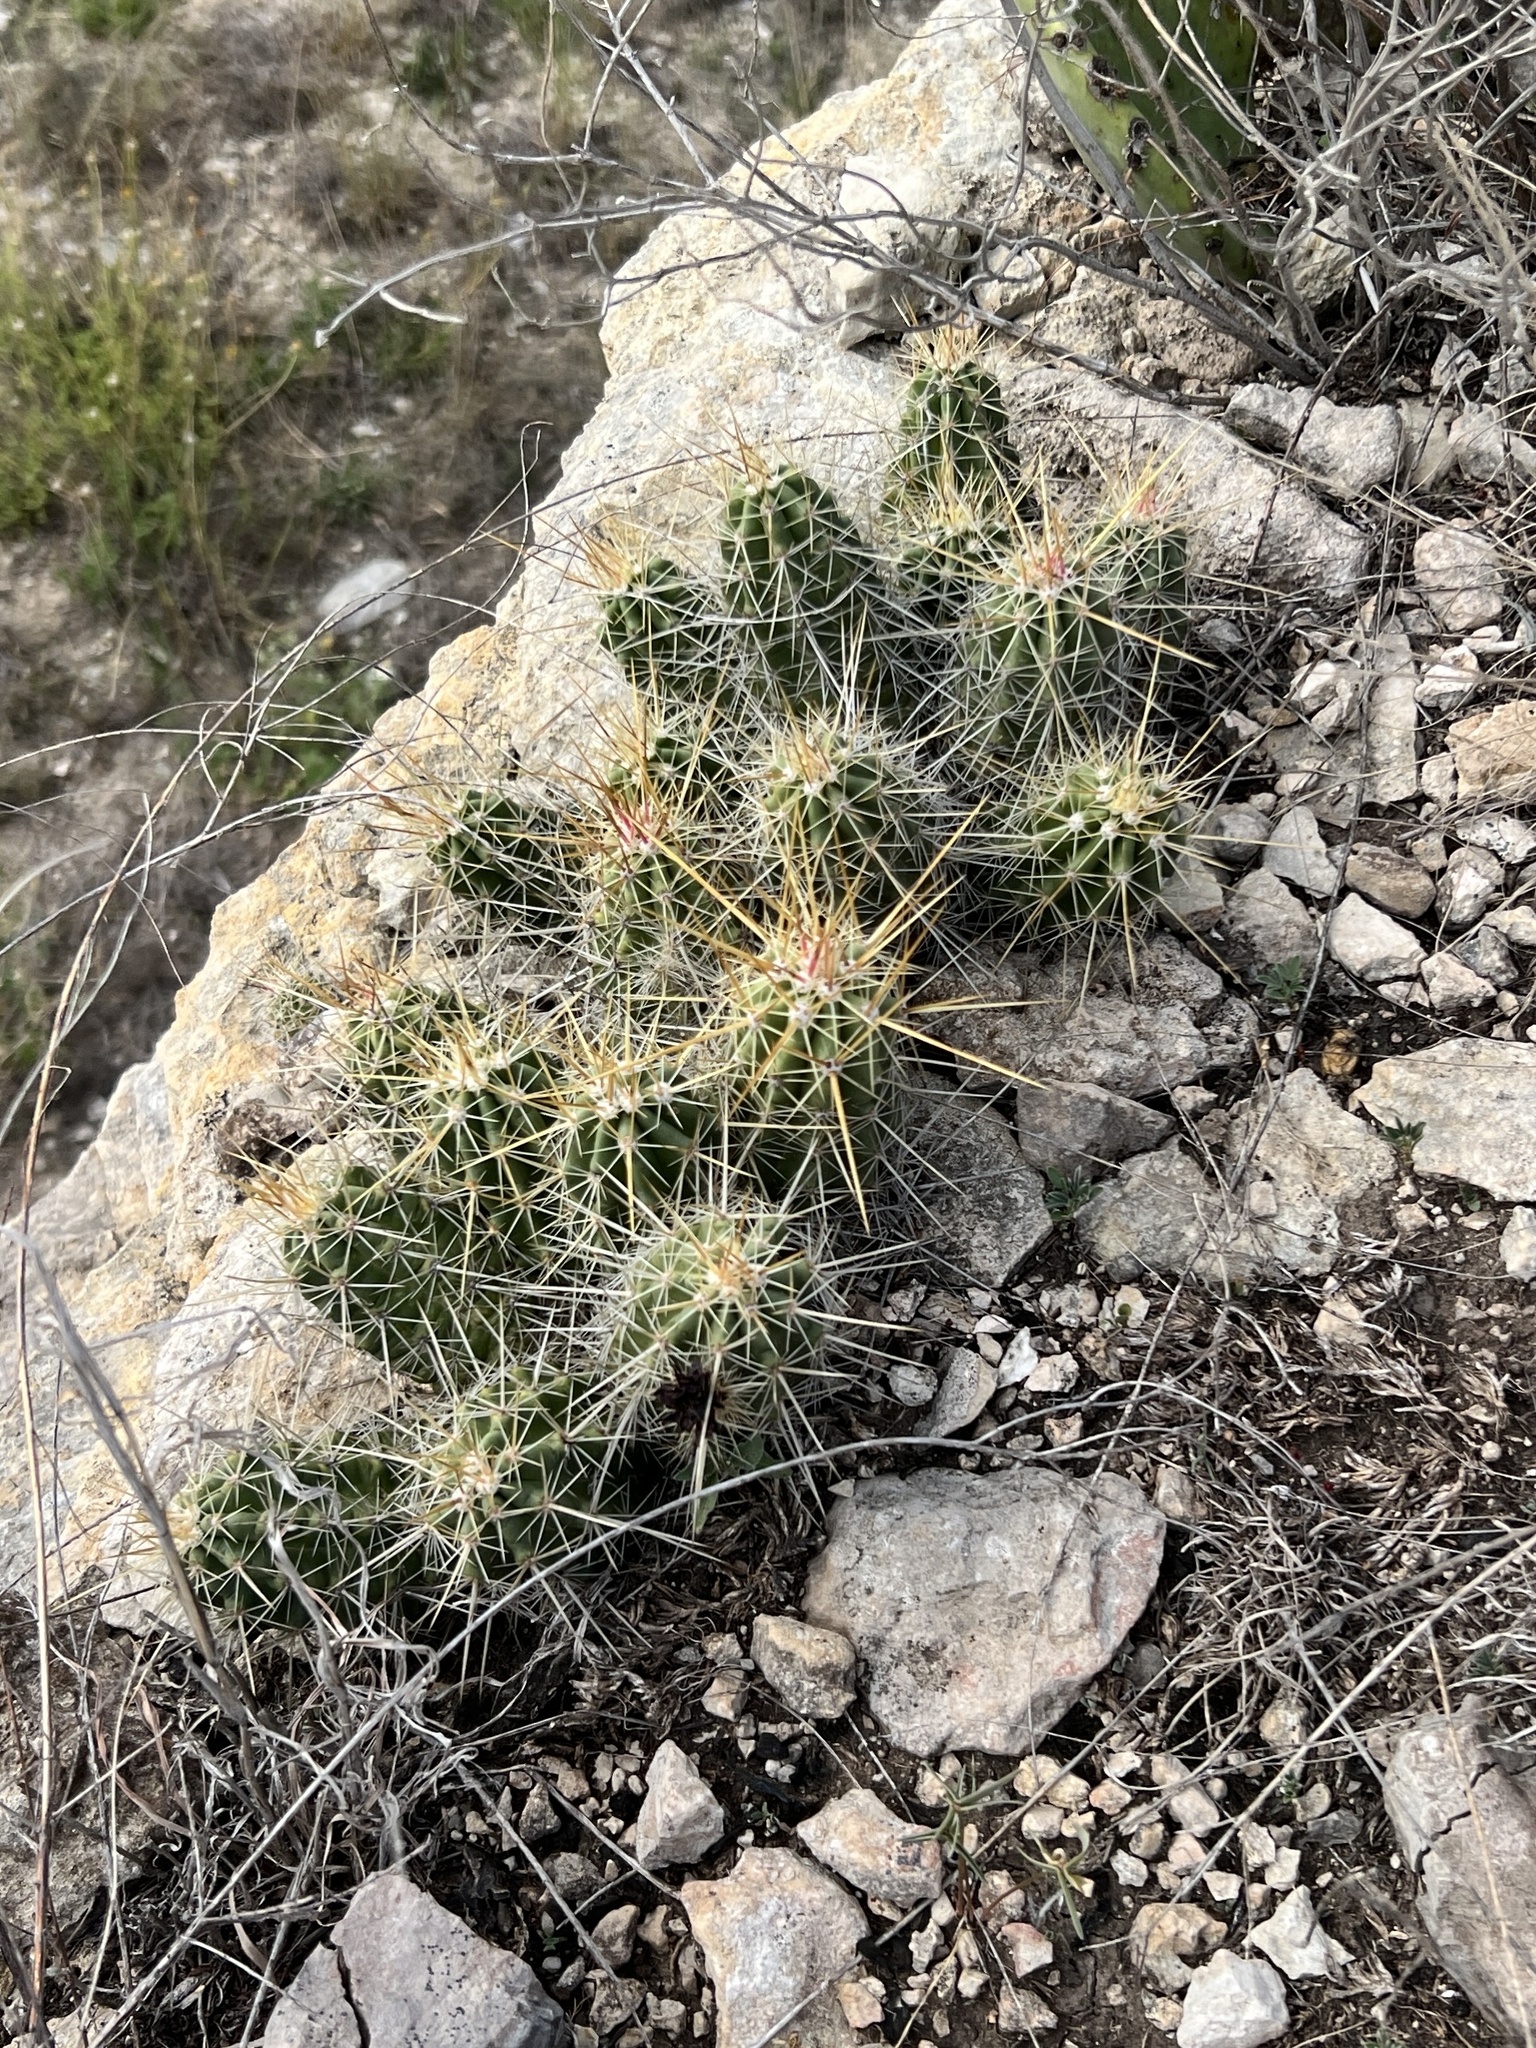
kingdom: Plantae
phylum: Tracheophyta
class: Magnoliopsida
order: Caryophyllales
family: Cactaceae
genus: Echinocereus
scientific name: Echinocereus enneacanthus
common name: Pitaya
